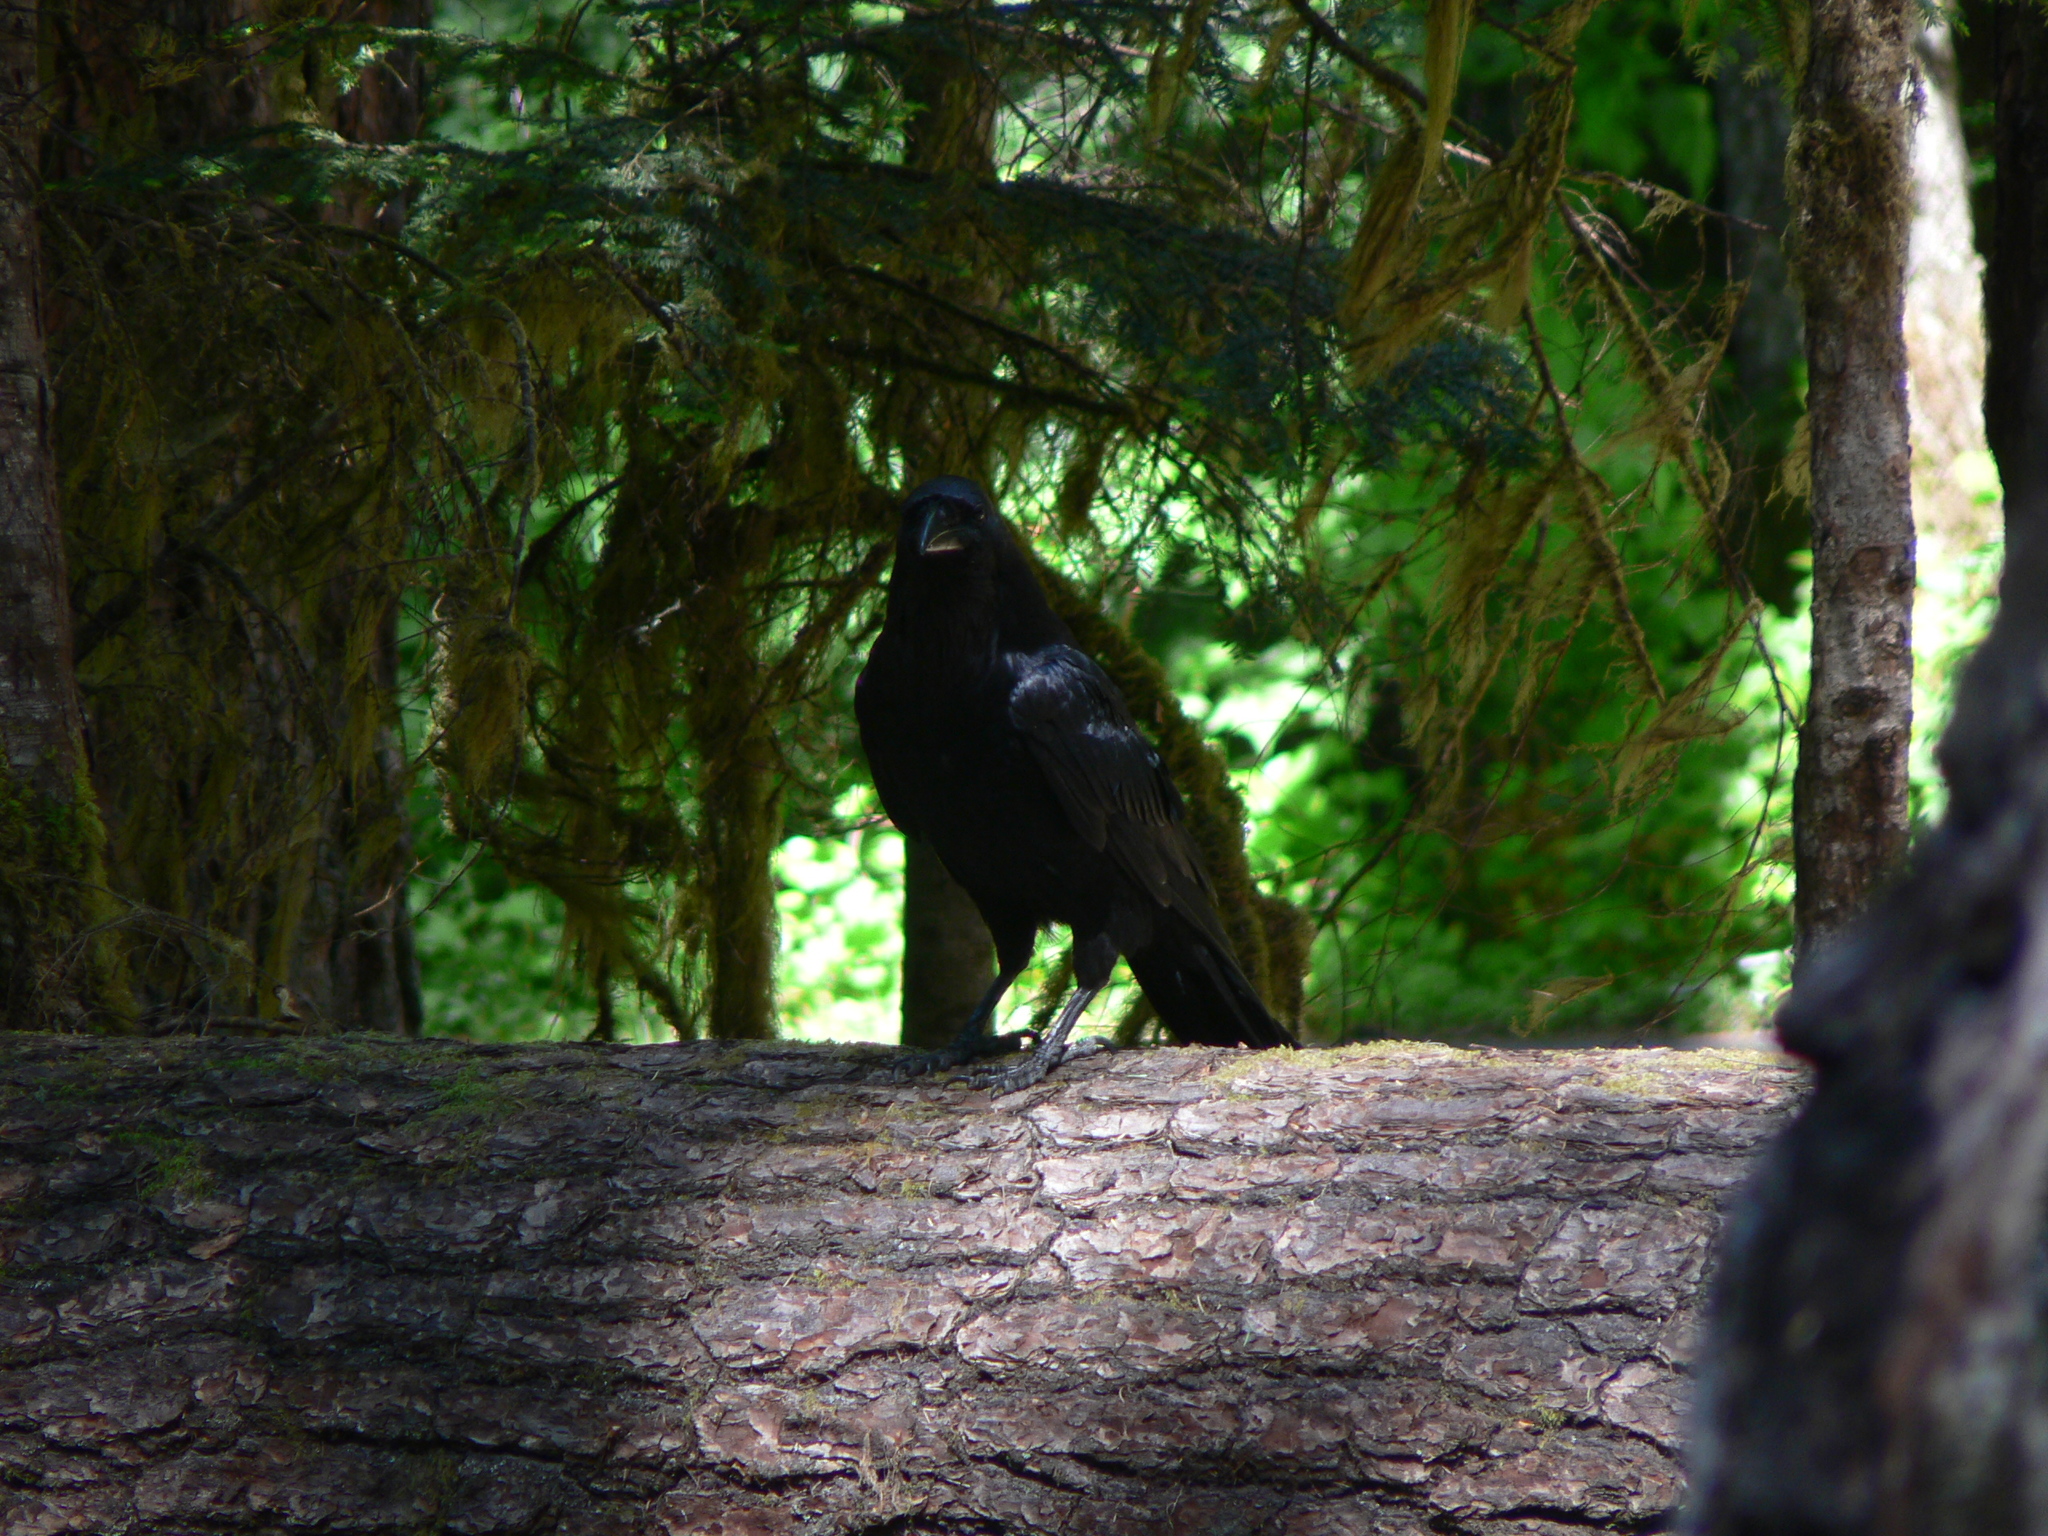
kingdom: Animalia
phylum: Chordata
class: Aves
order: Passeriformes
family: Corvidae
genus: Corvus
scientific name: Corvus corax
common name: Common raven
